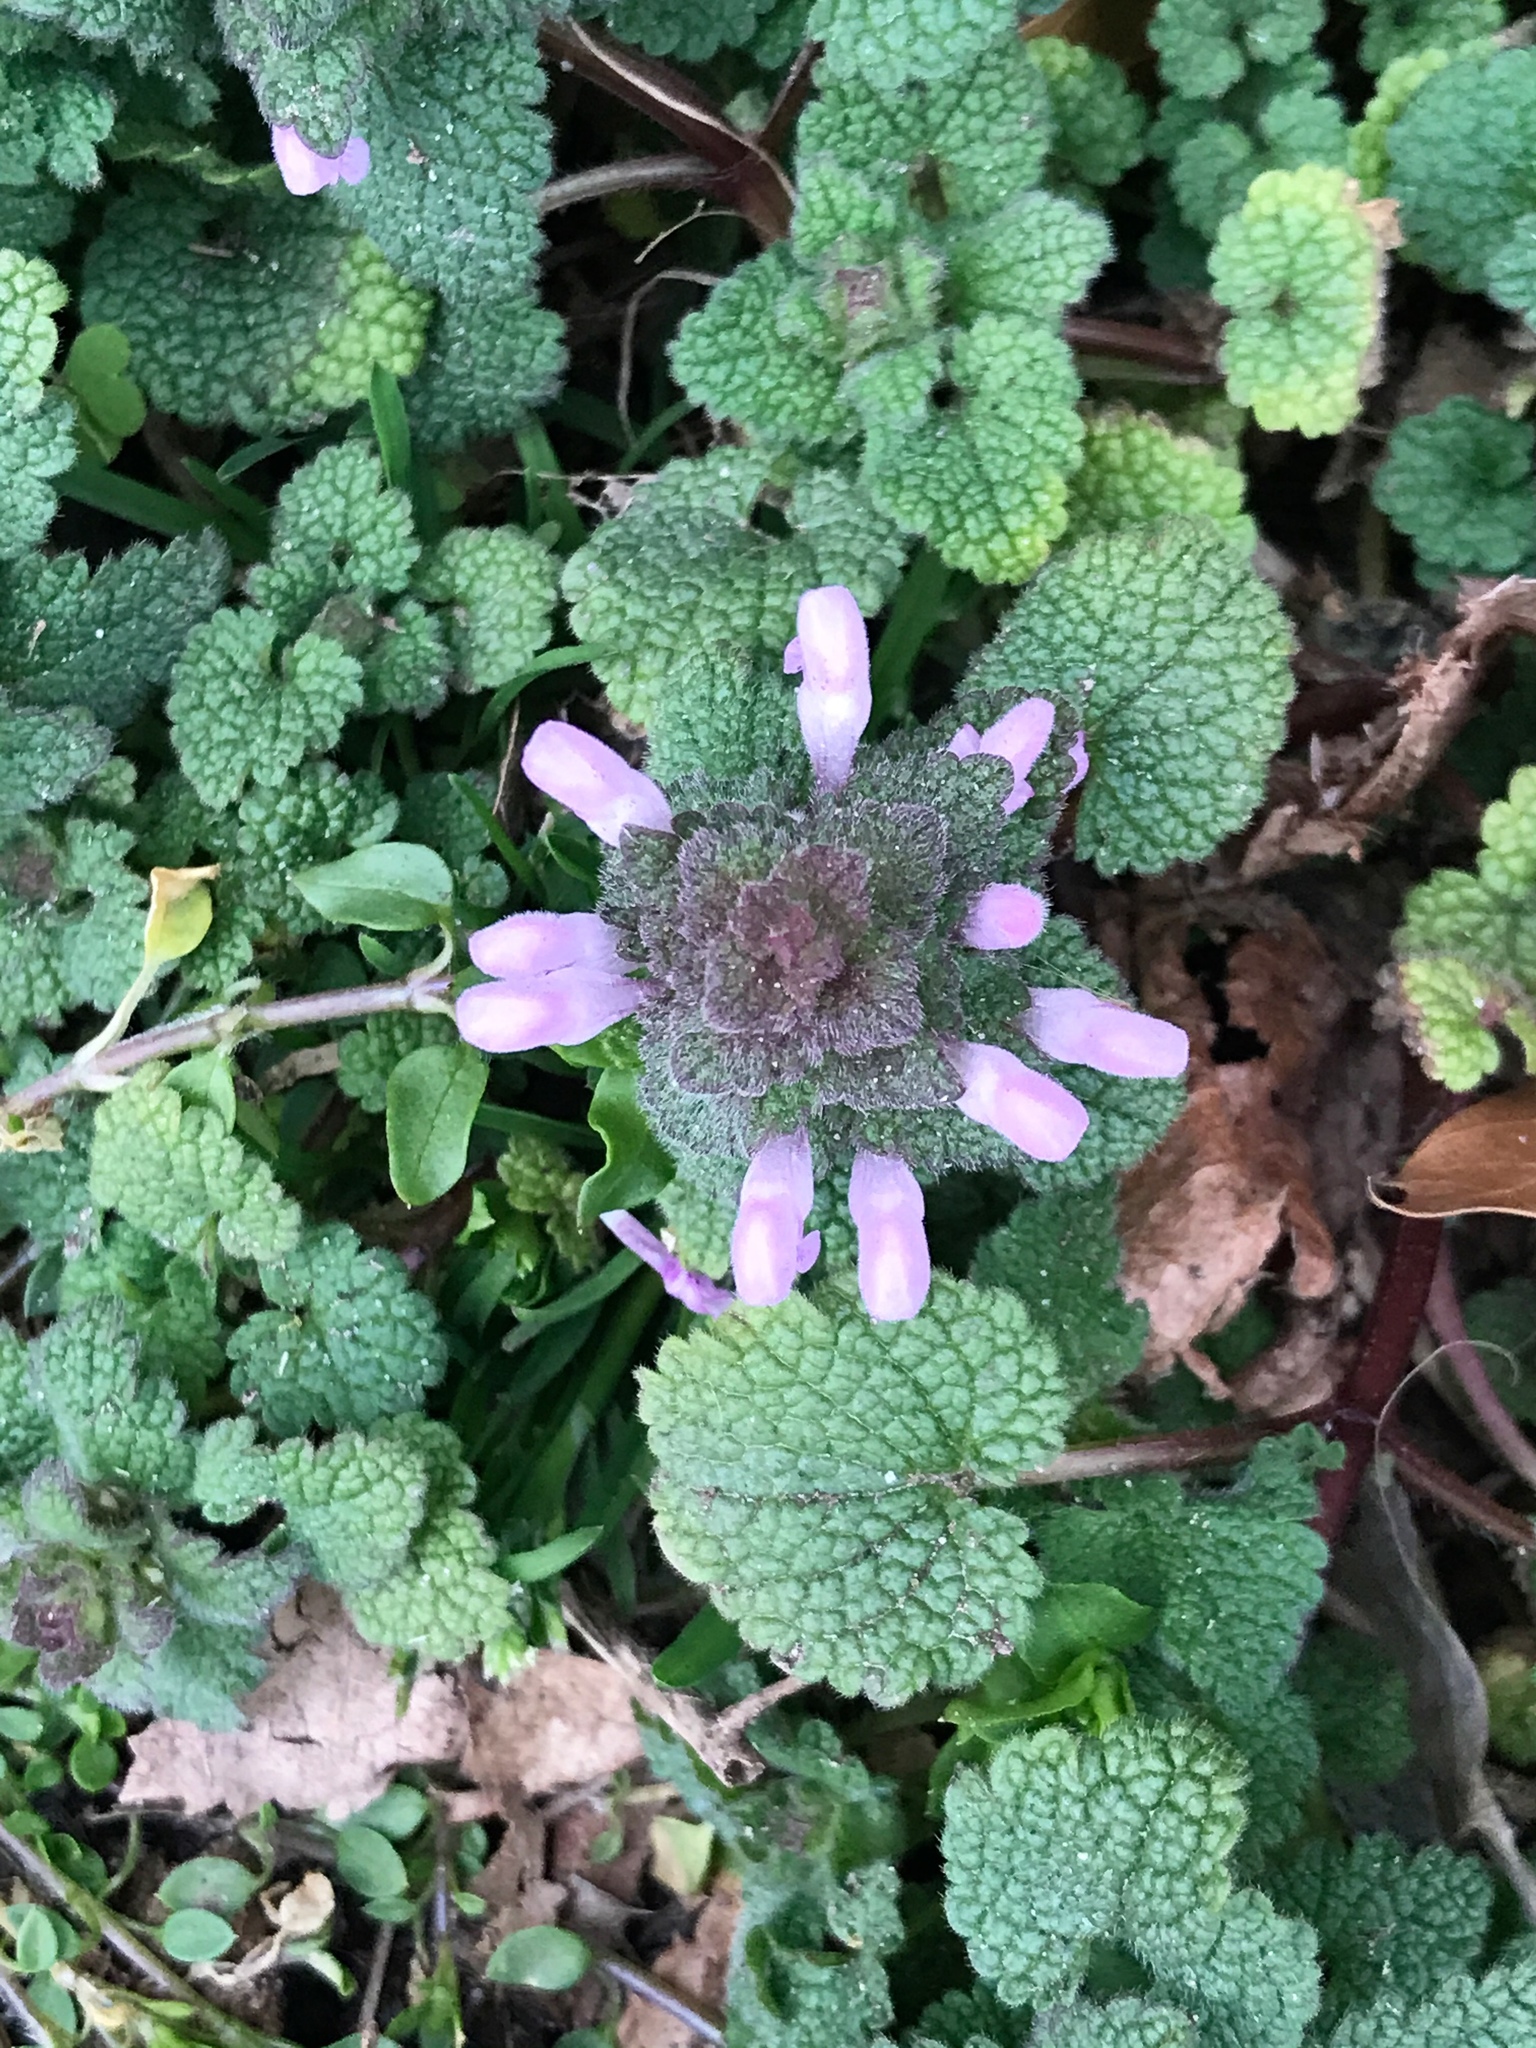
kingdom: Plantae
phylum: Tracheophyta
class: Magnoliopsida
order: Lamiales
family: Lamiaceae
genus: Lamium
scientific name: Lamium purpureum
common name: Red dead-nettle
